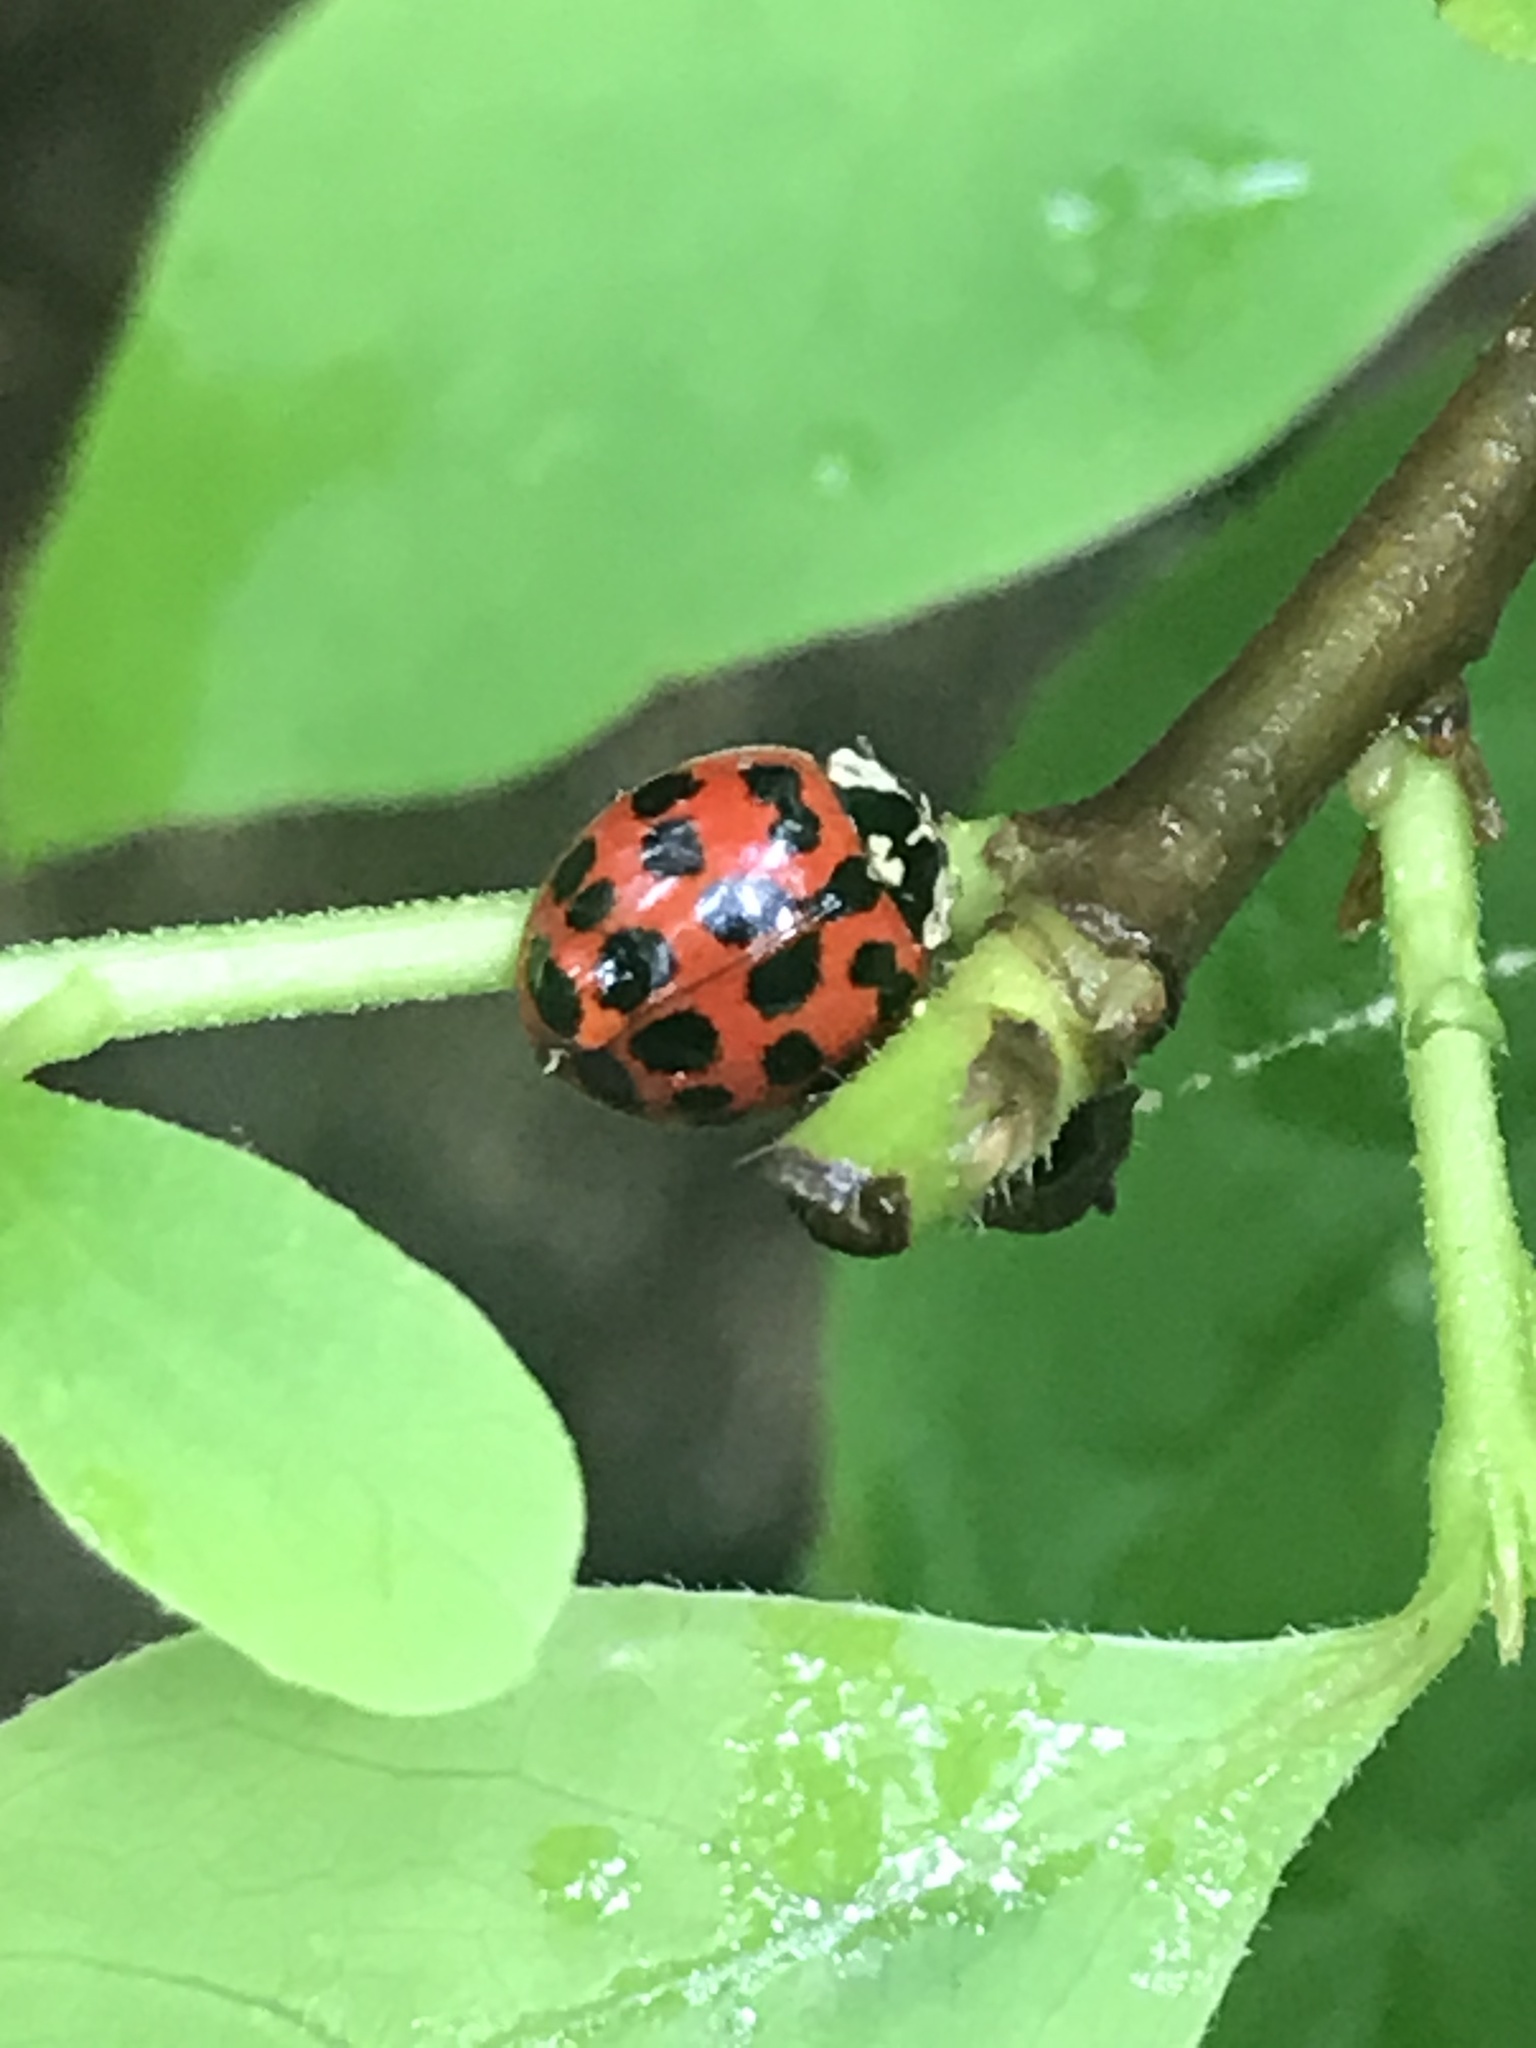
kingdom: Animalia
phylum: Arthropoda
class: Insecta
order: Coleoptera
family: Coccinellidae
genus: Harmonia
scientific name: Harmonia axyridis
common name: Harlequin ladybird
